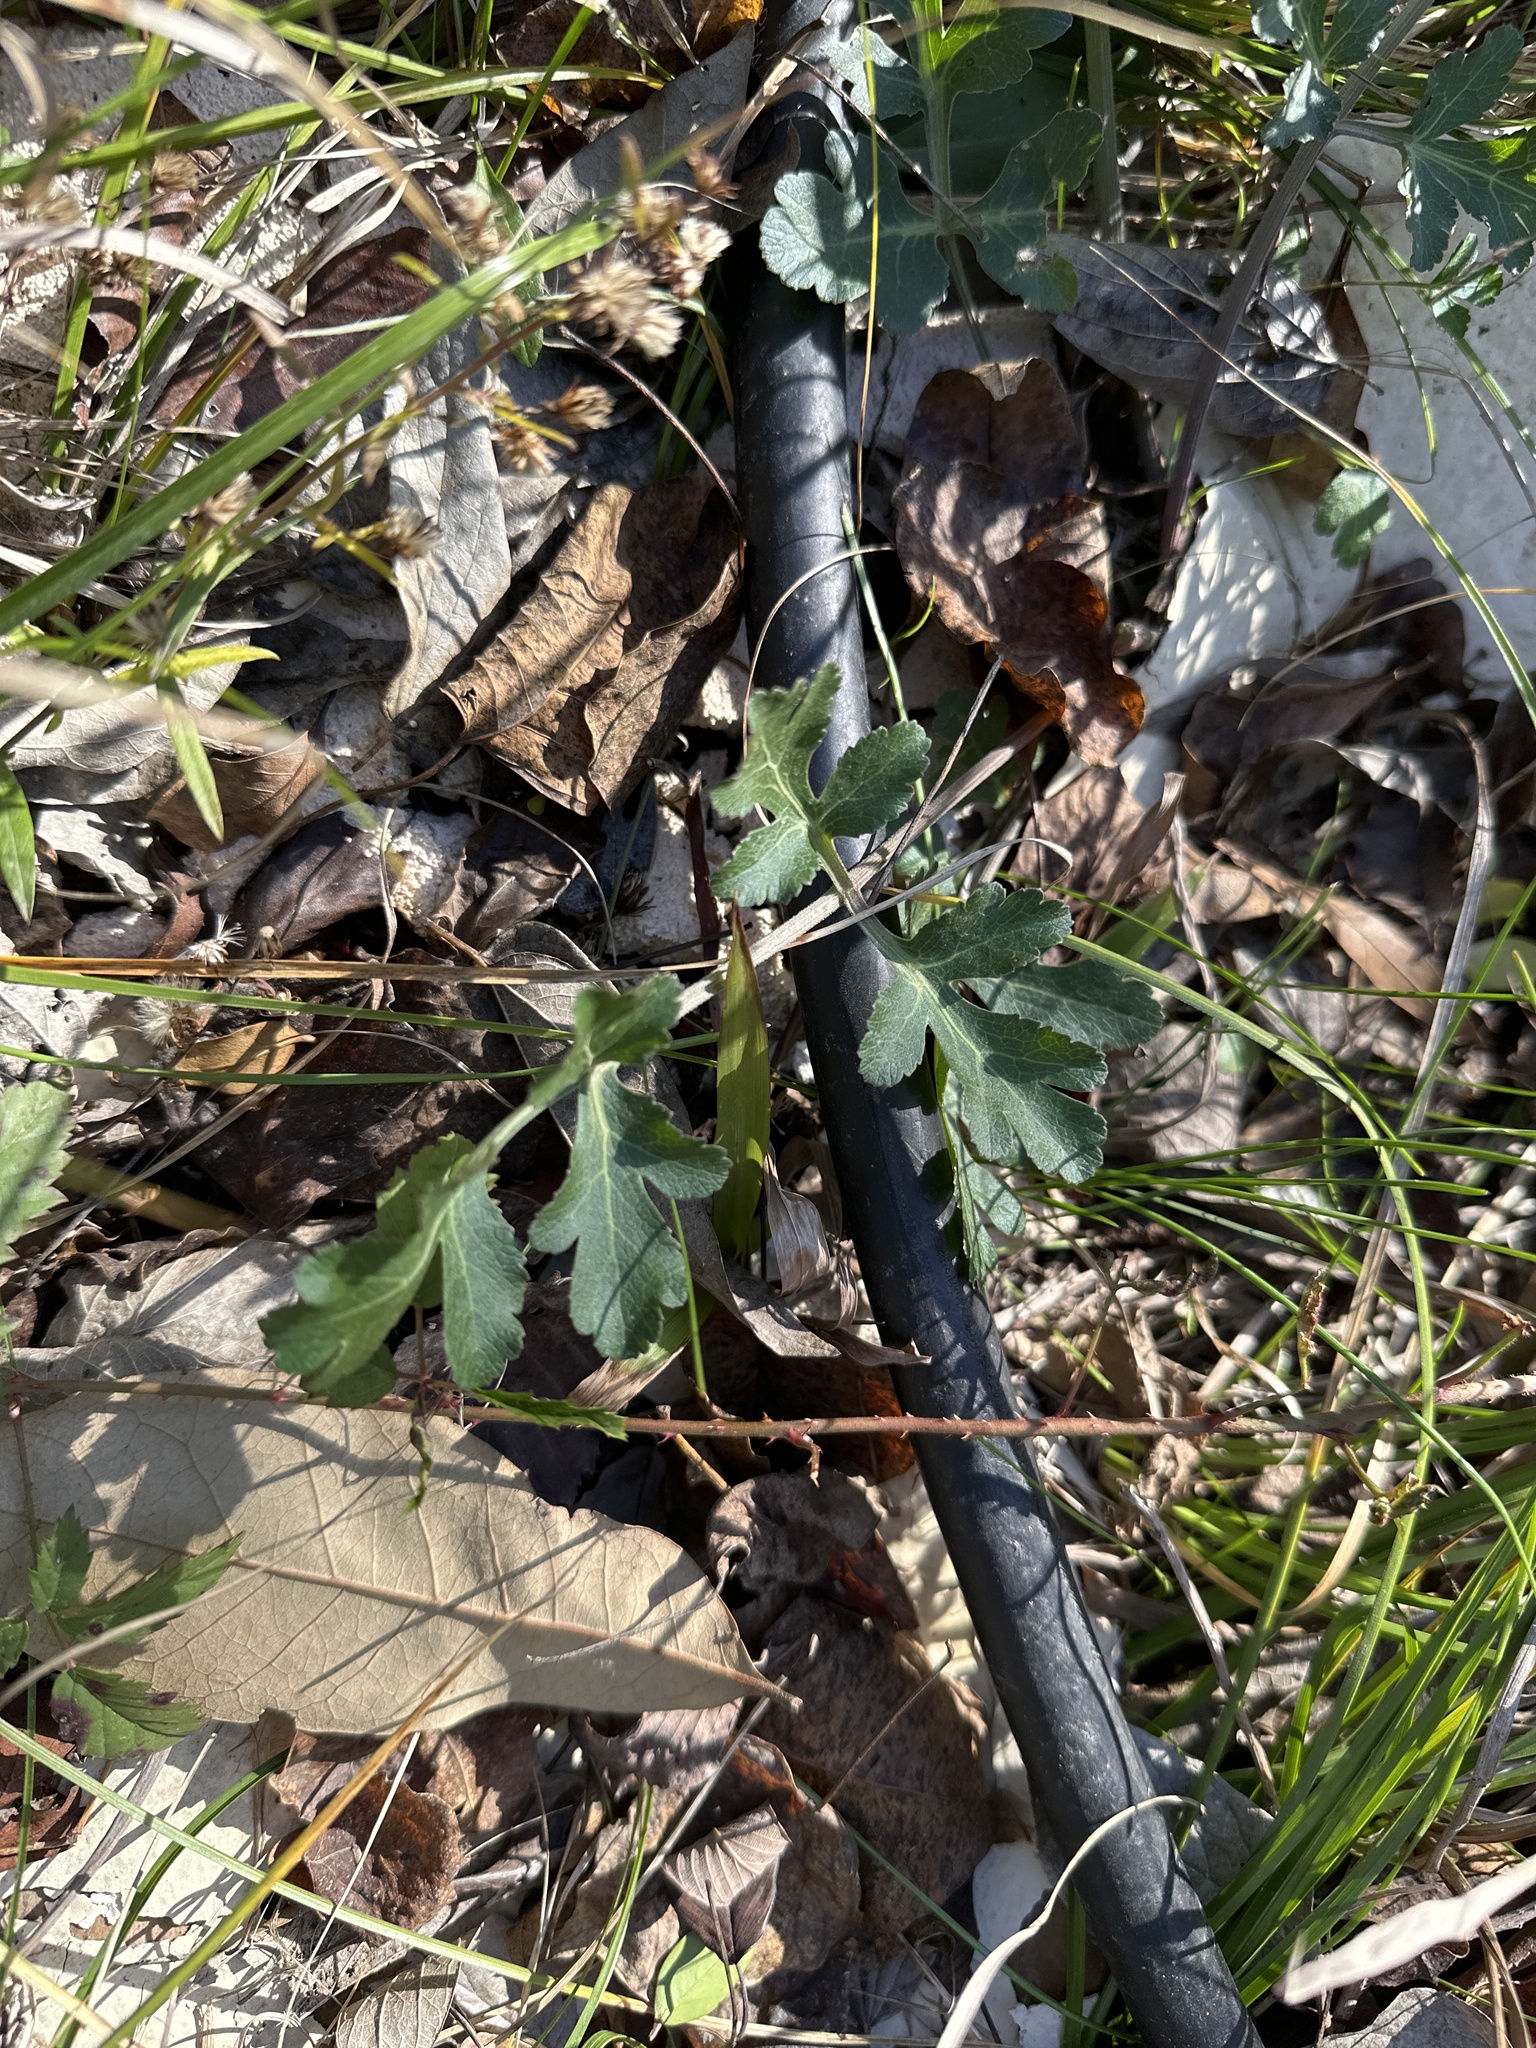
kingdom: Plantae
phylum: Tracheophyta
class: Magnoliopsida
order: Apiales
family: Apiaceae
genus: Polytaenia
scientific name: Polytaenia texana
